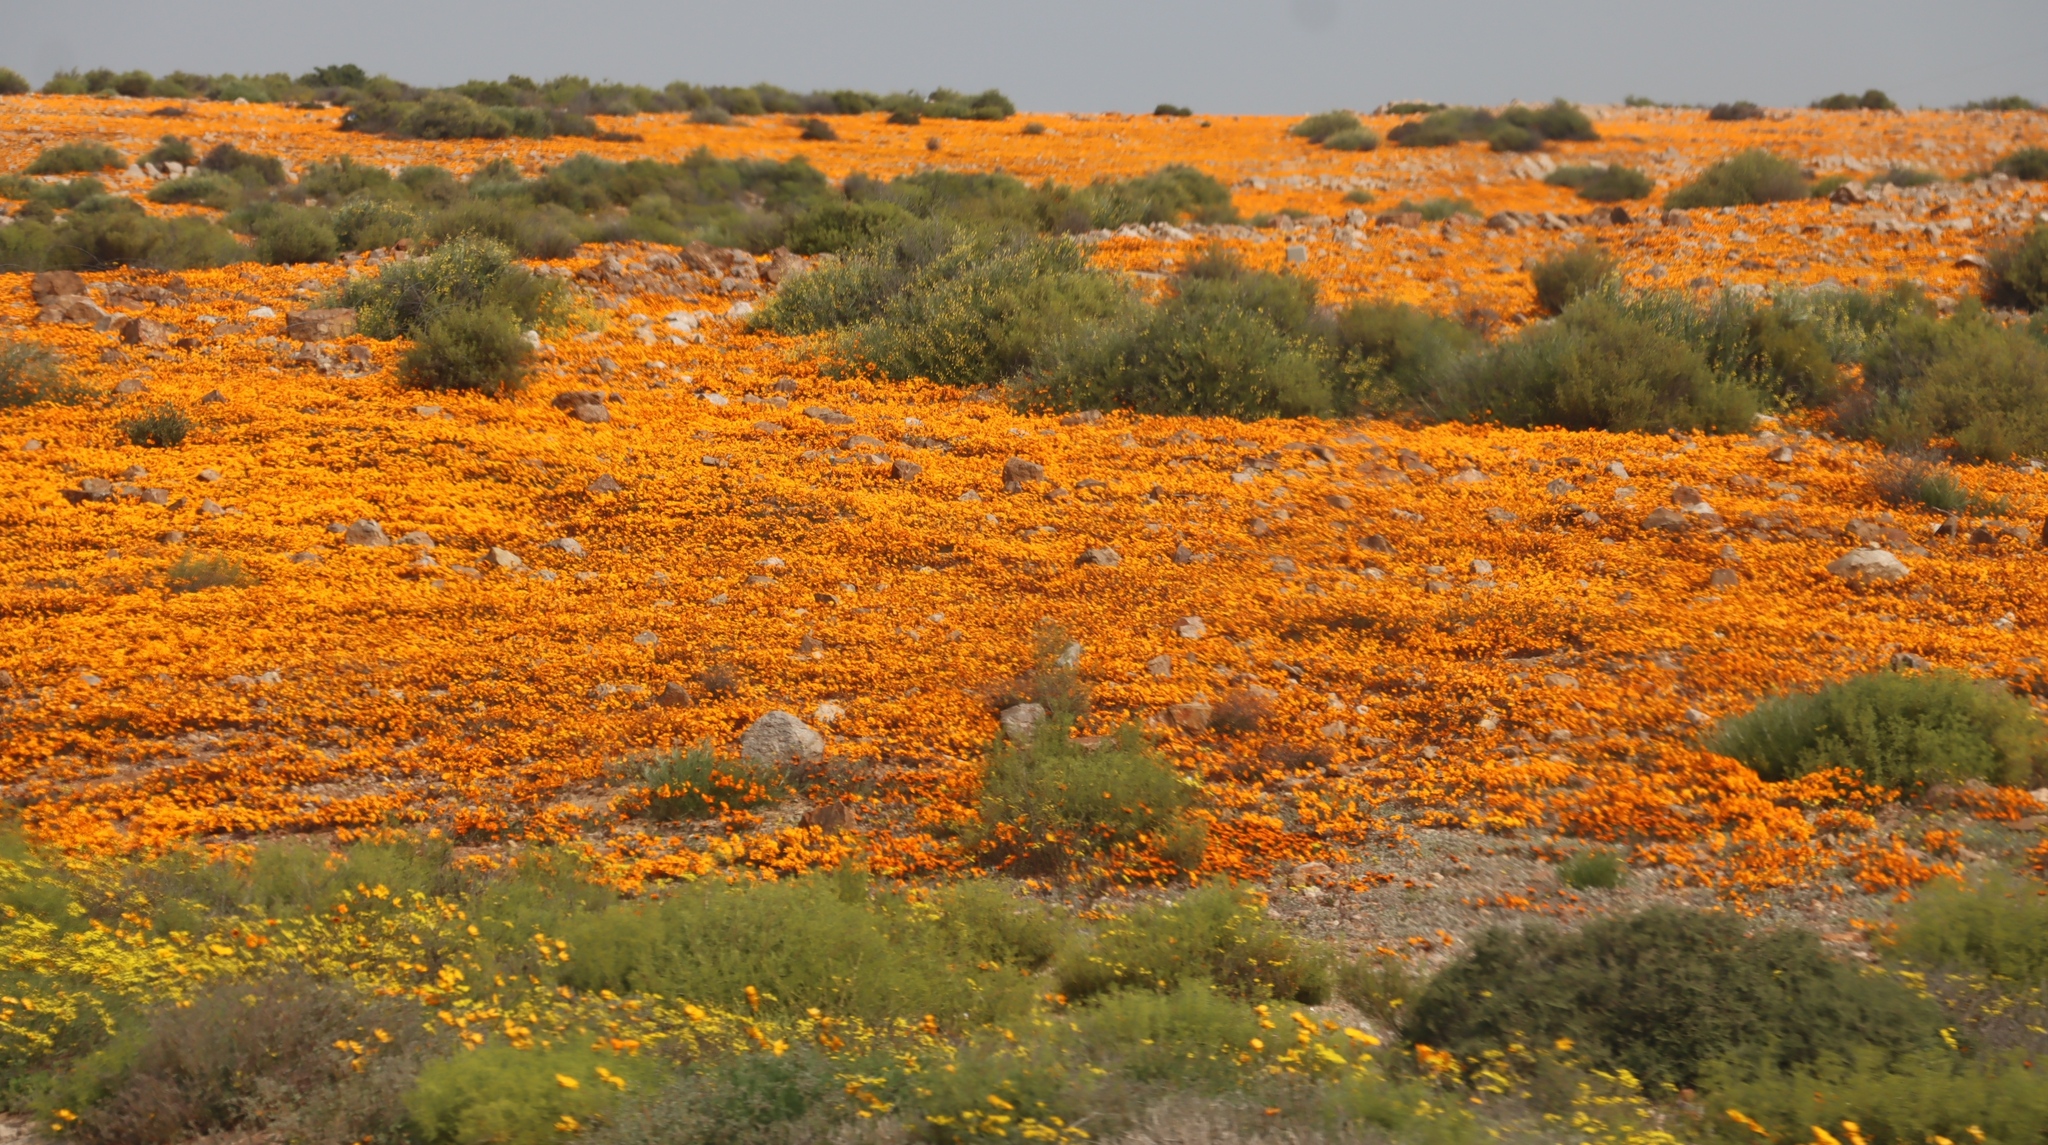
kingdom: Plantae
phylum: Tracheophyta
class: Magnoliopsida
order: Asterales
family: Asteraceae
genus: Gorteria
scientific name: Gorteria diffusa
